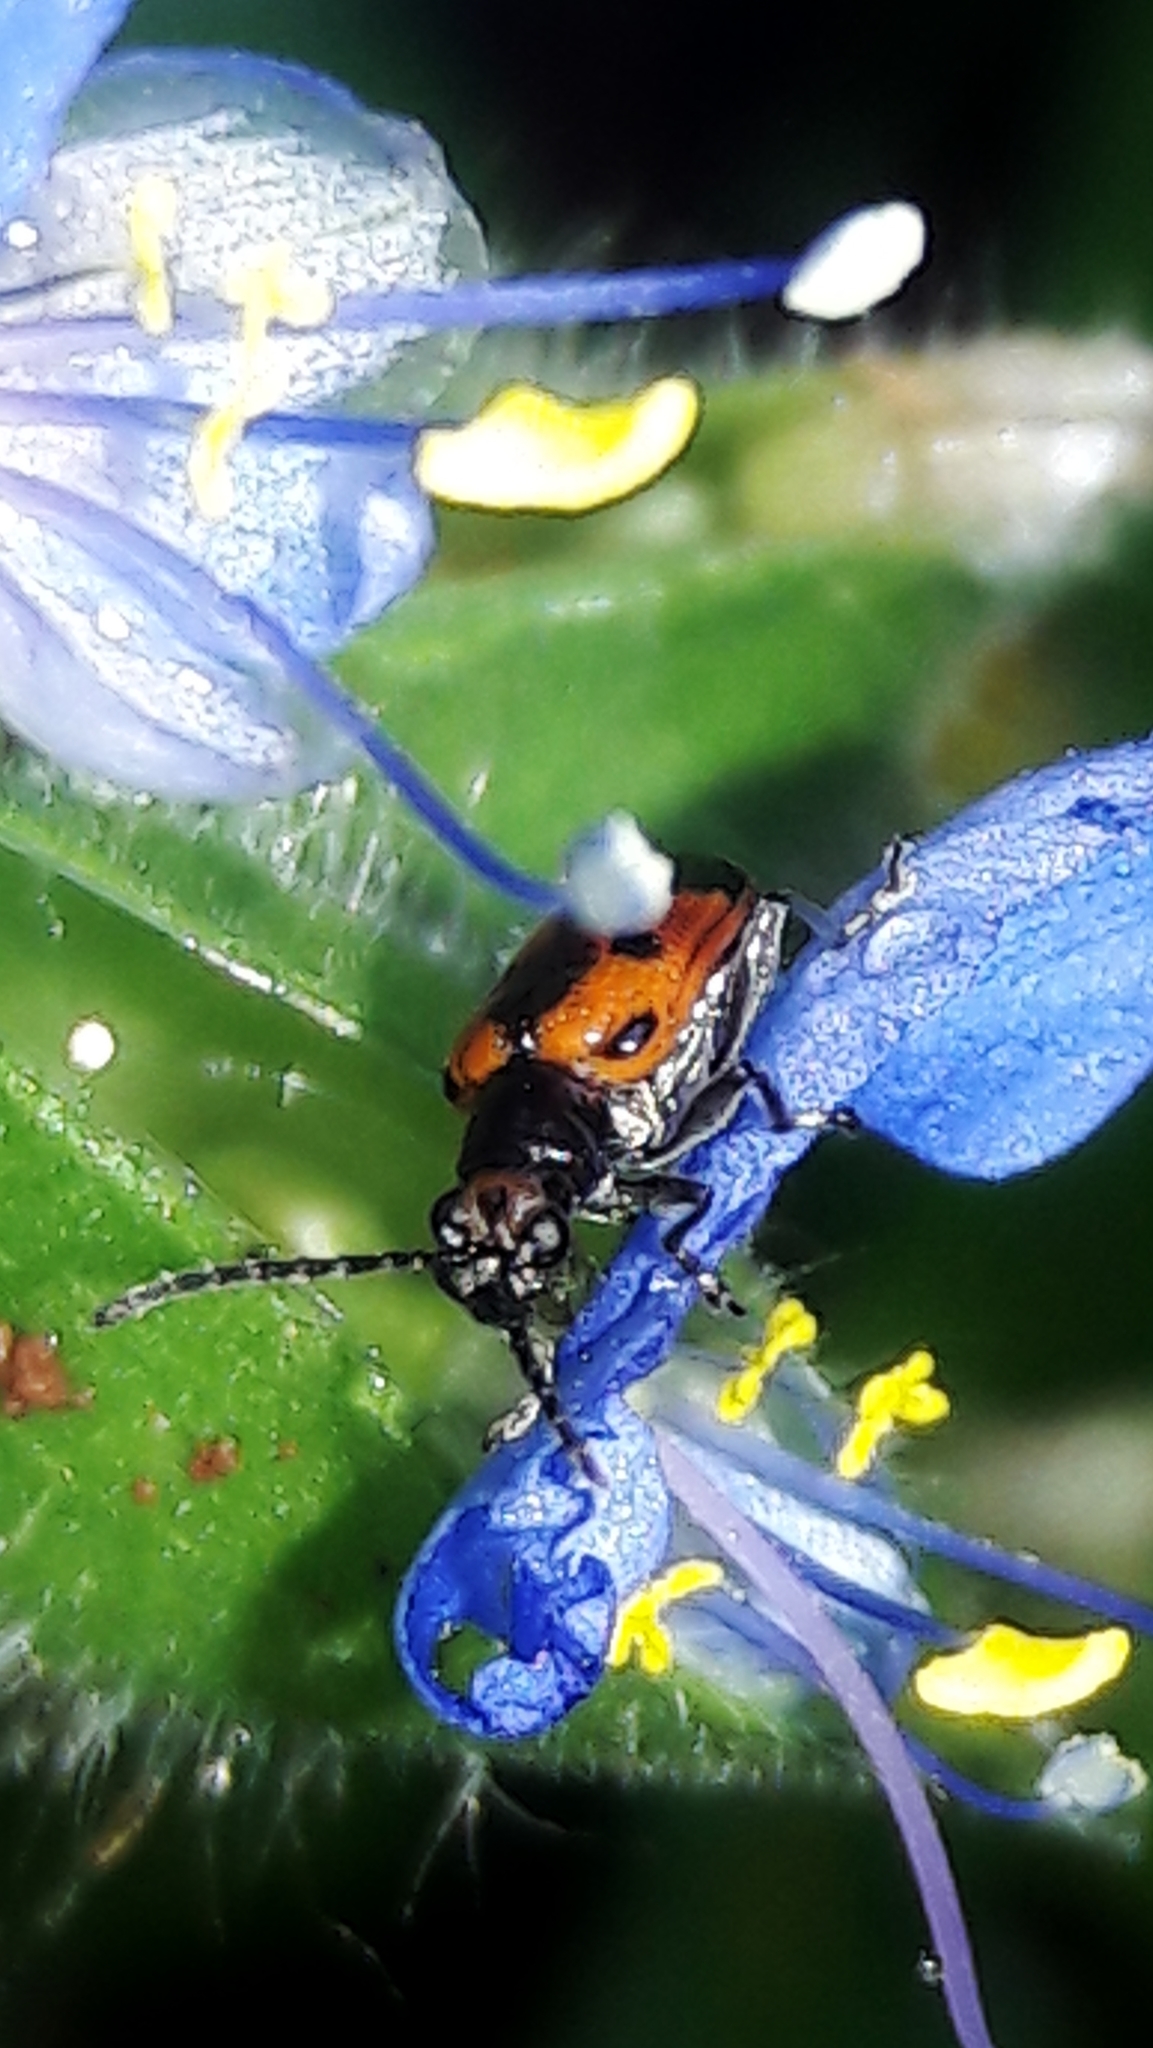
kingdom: Animalia
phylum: Arthropoda
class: Insecta
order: Coleoptera
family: Chrysomelidae
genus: Neolema
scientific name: Neolema dorsalis
